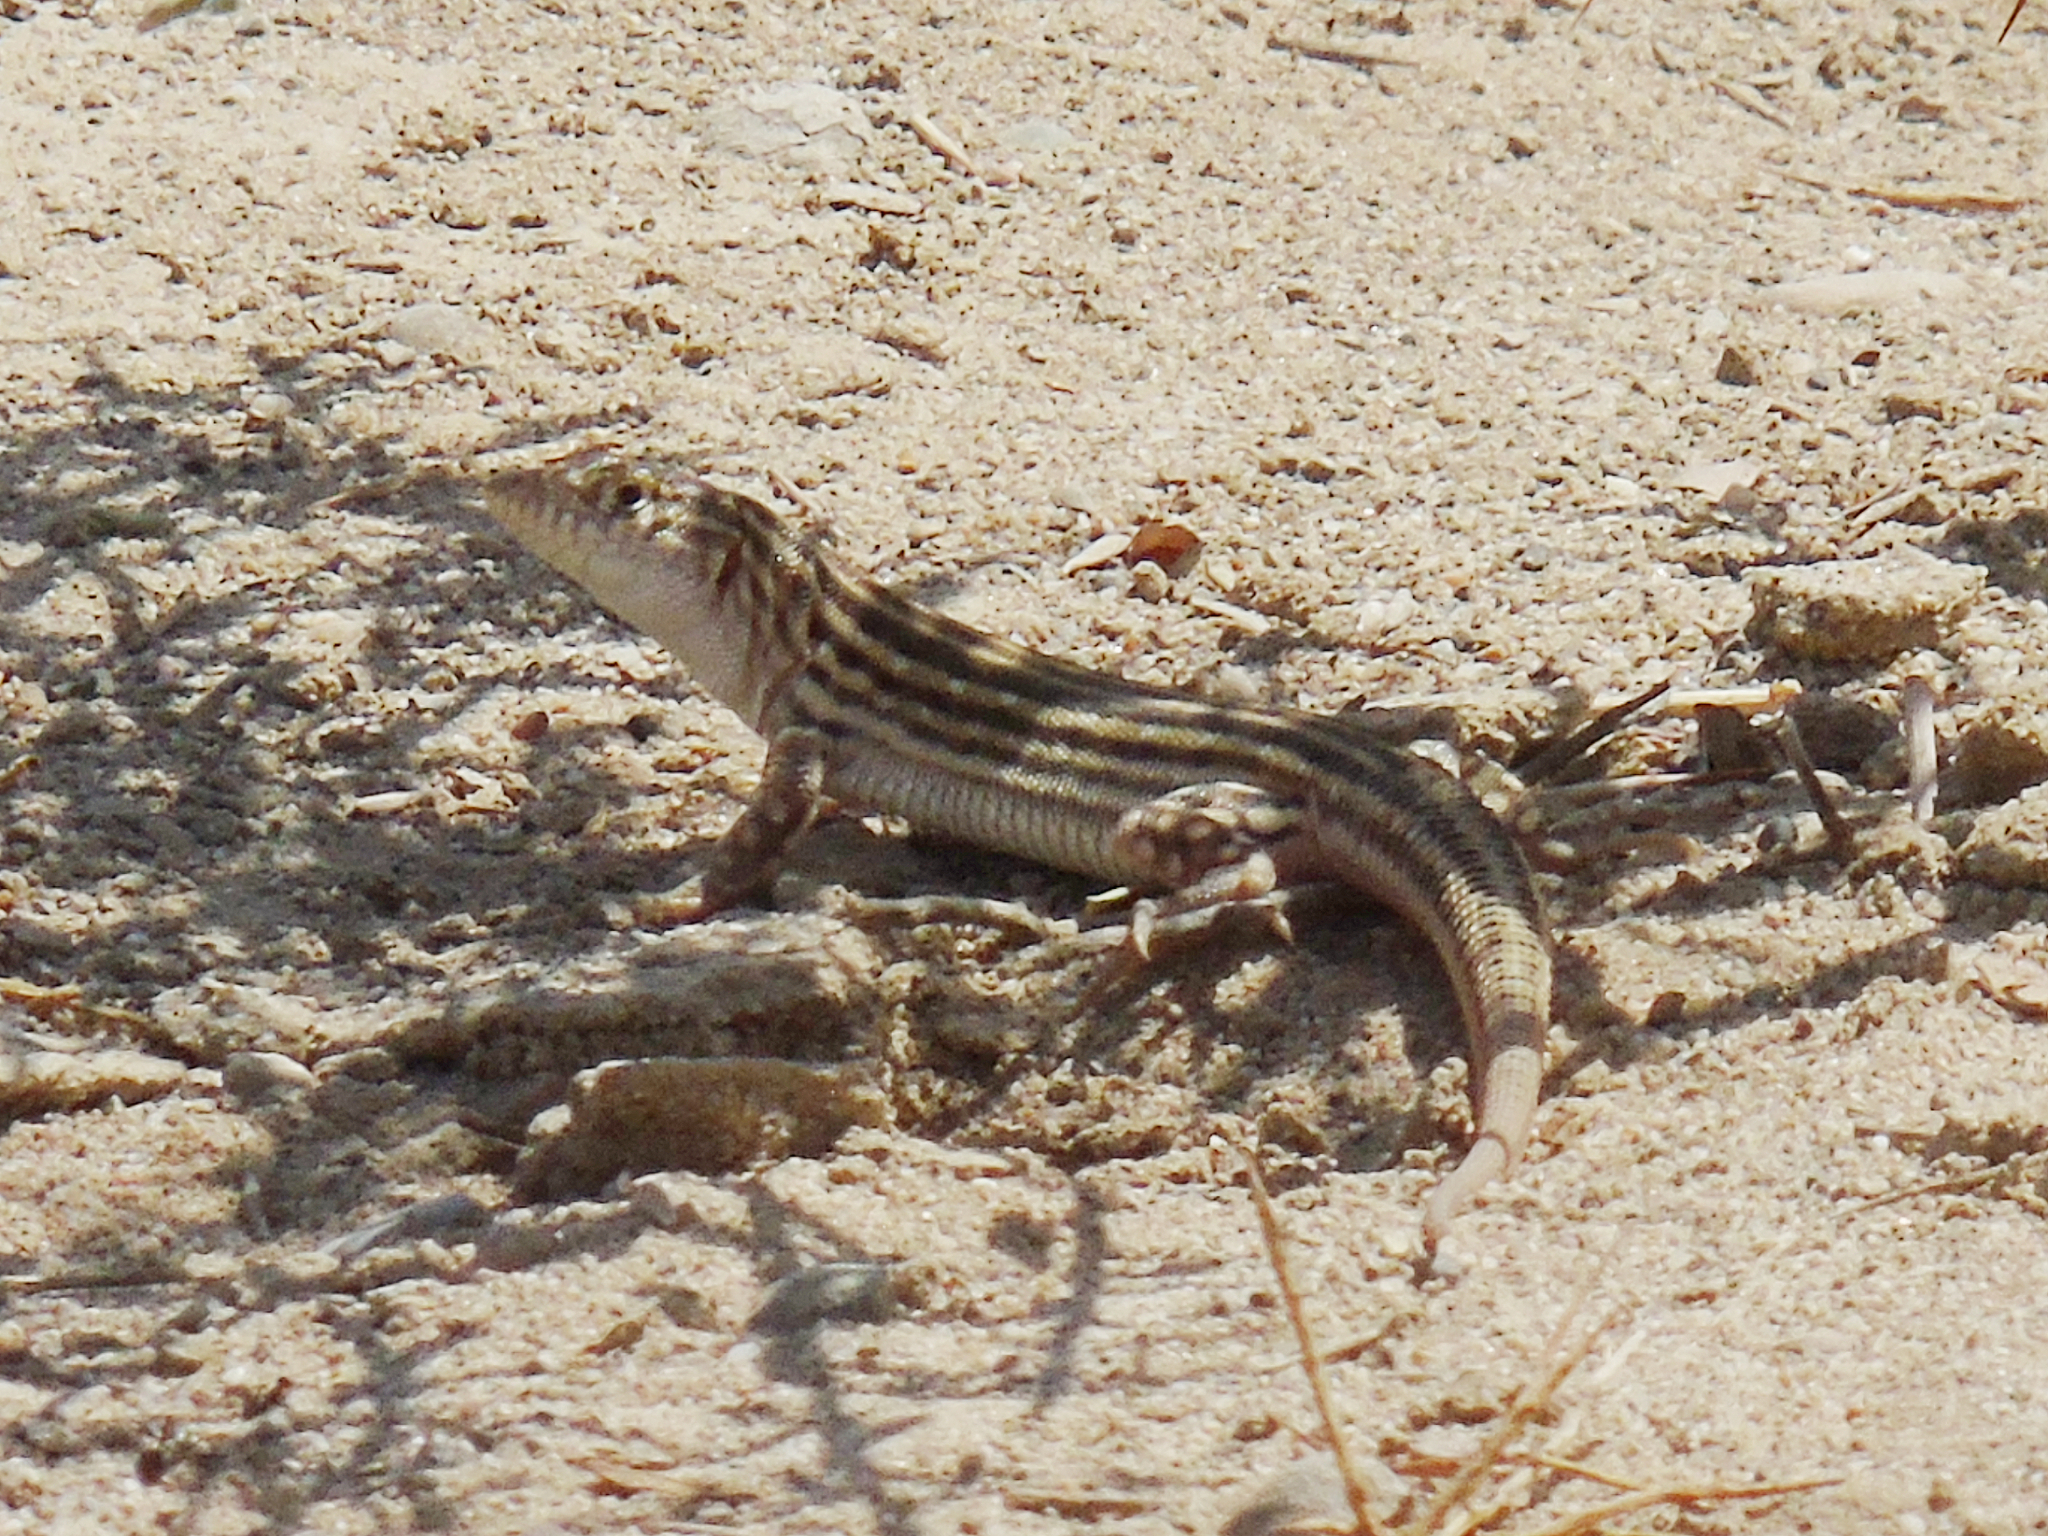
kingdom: Animalia
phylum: Chordata
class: Squamata
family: Lacertidae
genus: Eremias
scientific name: Eremias velox
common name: Central asian racerunner
